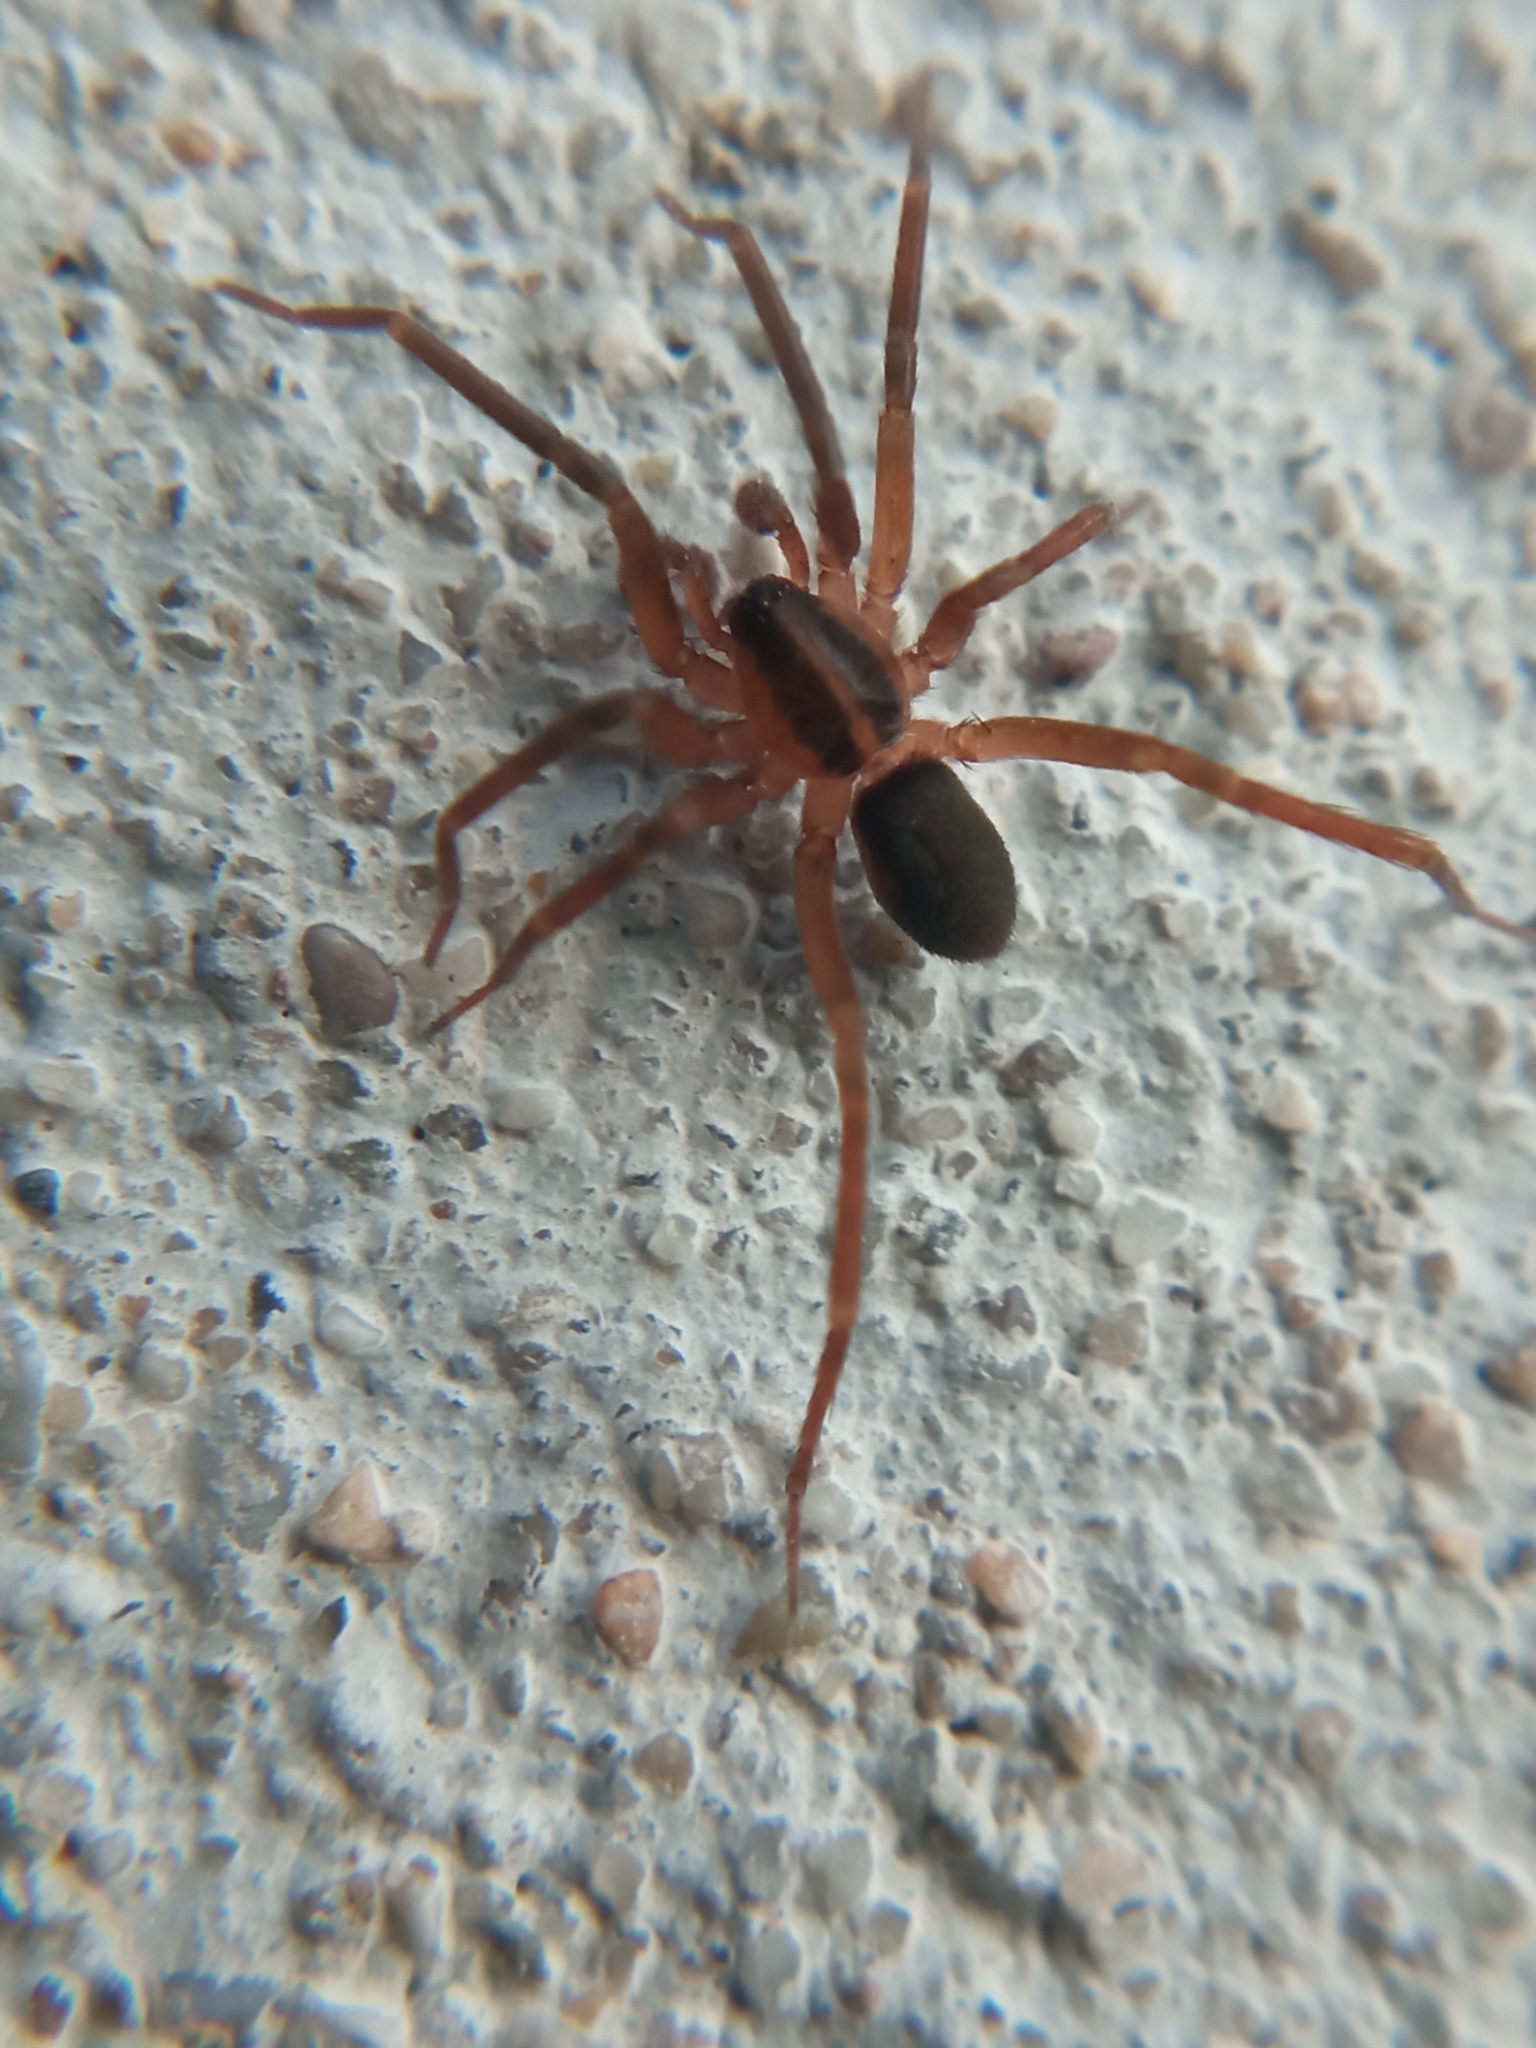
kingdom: Animalia
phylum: Arthropoda
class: Arachnida
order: Araneae
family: Liocranidae
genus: Scotina
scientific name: Scotina celans
